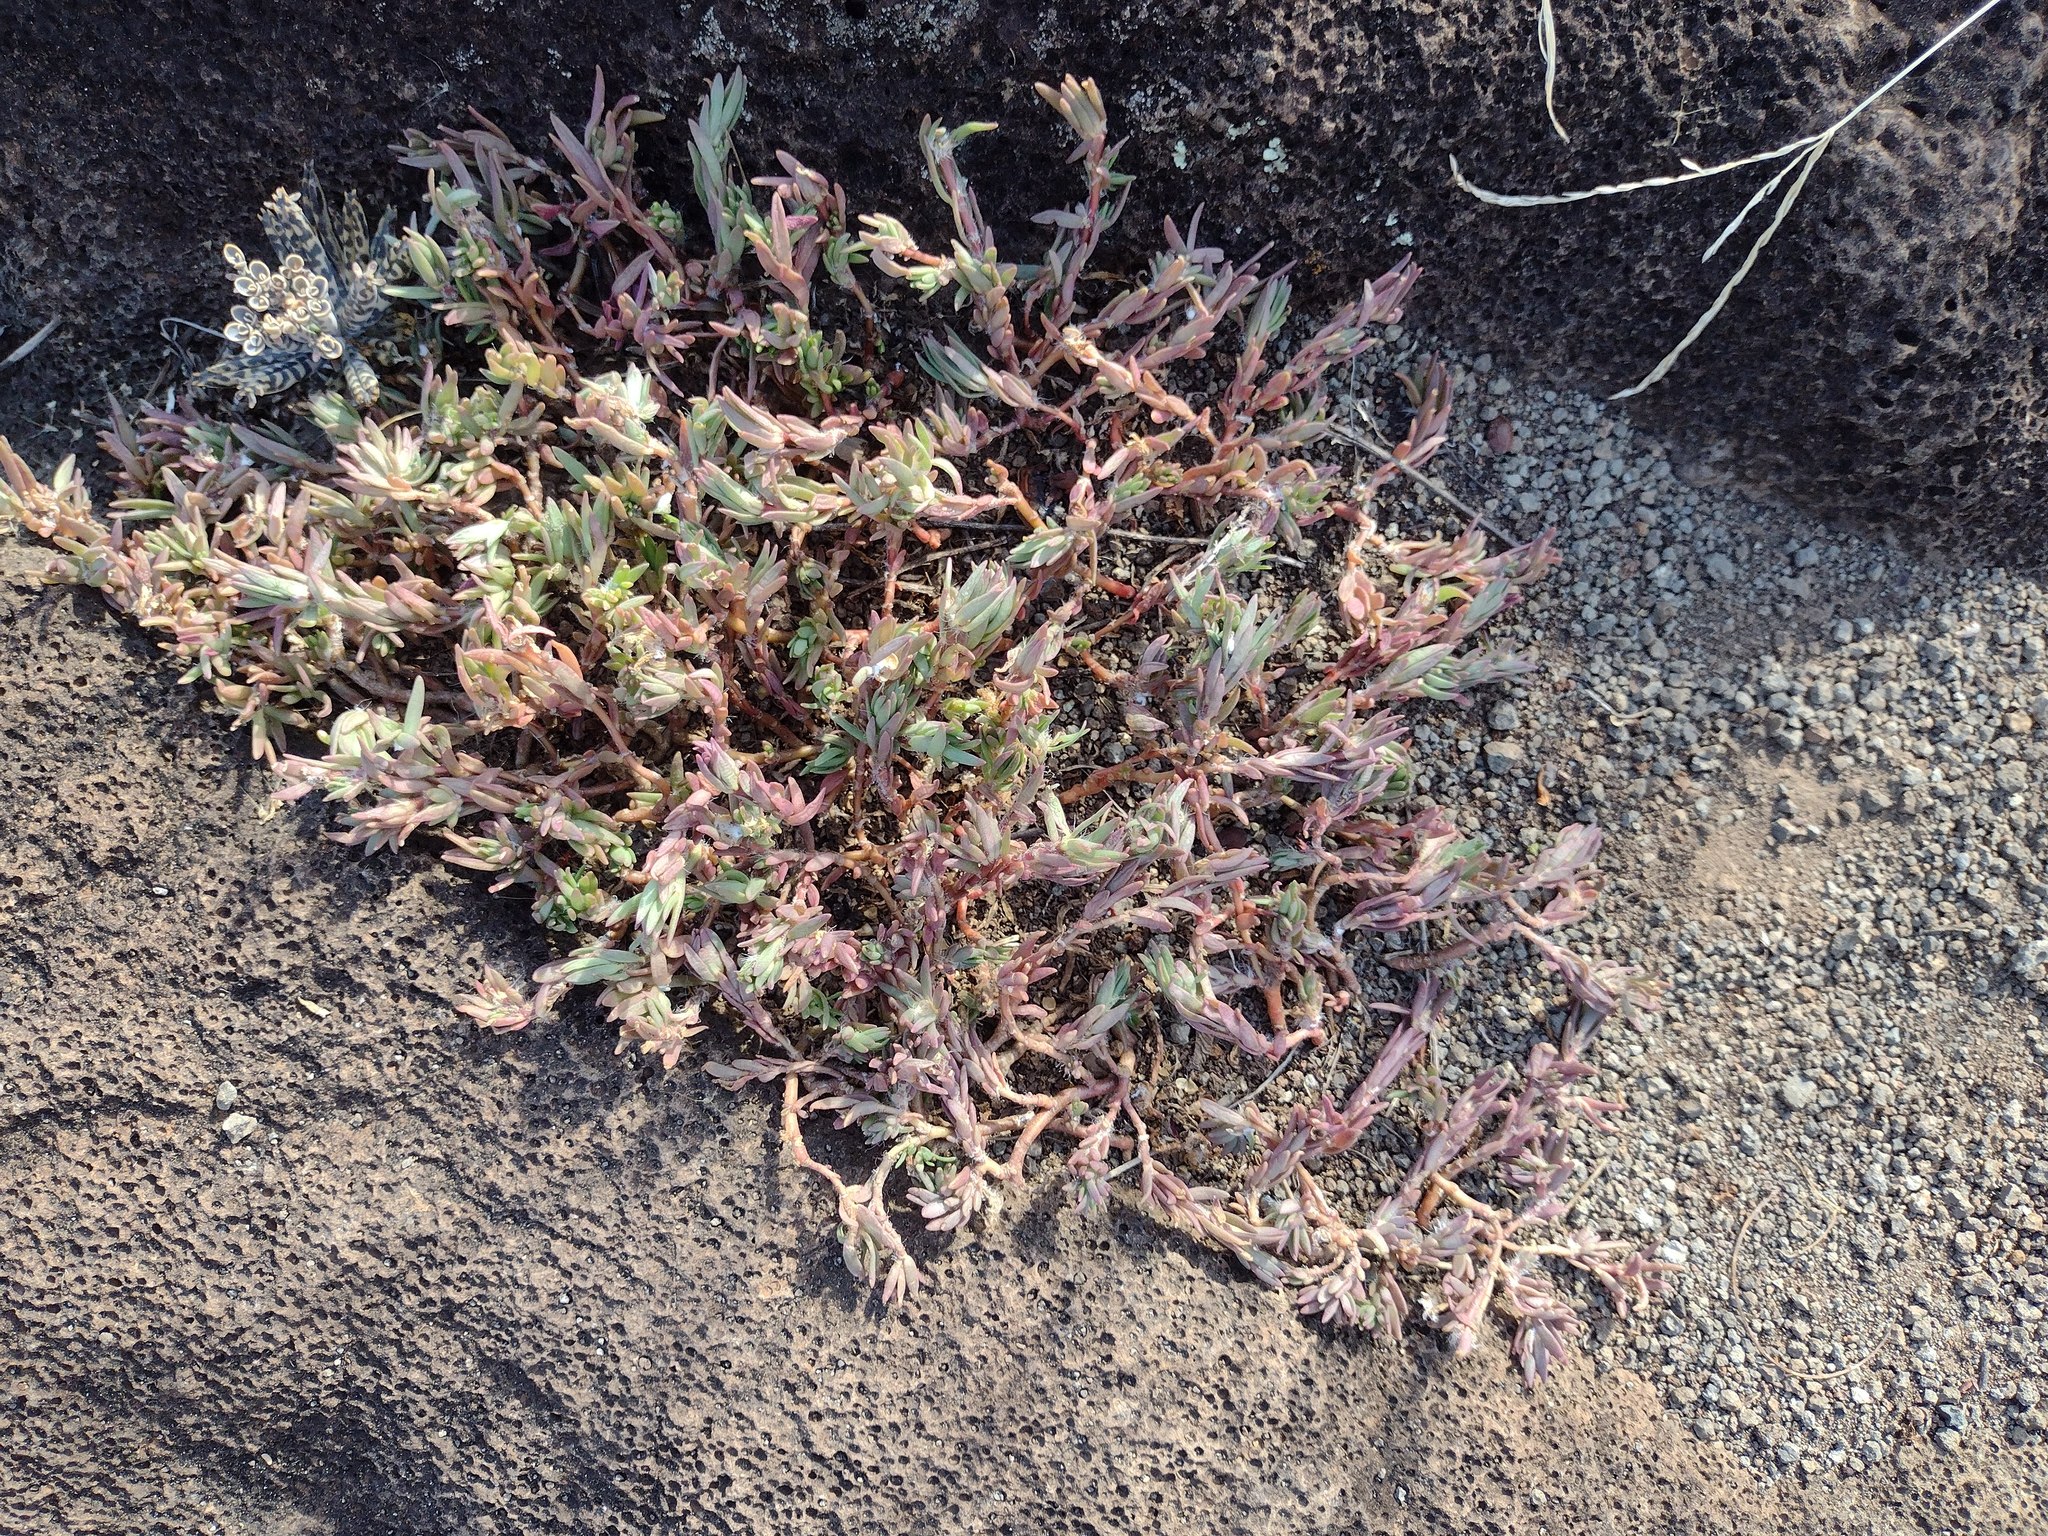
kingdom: Plantae
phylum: Tracheophyta
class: Magnoliopsida
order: Caryophyllales
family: Portulacaceae
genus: Portulaca
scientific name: Portulaca pilosa
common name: Kiss me quick
